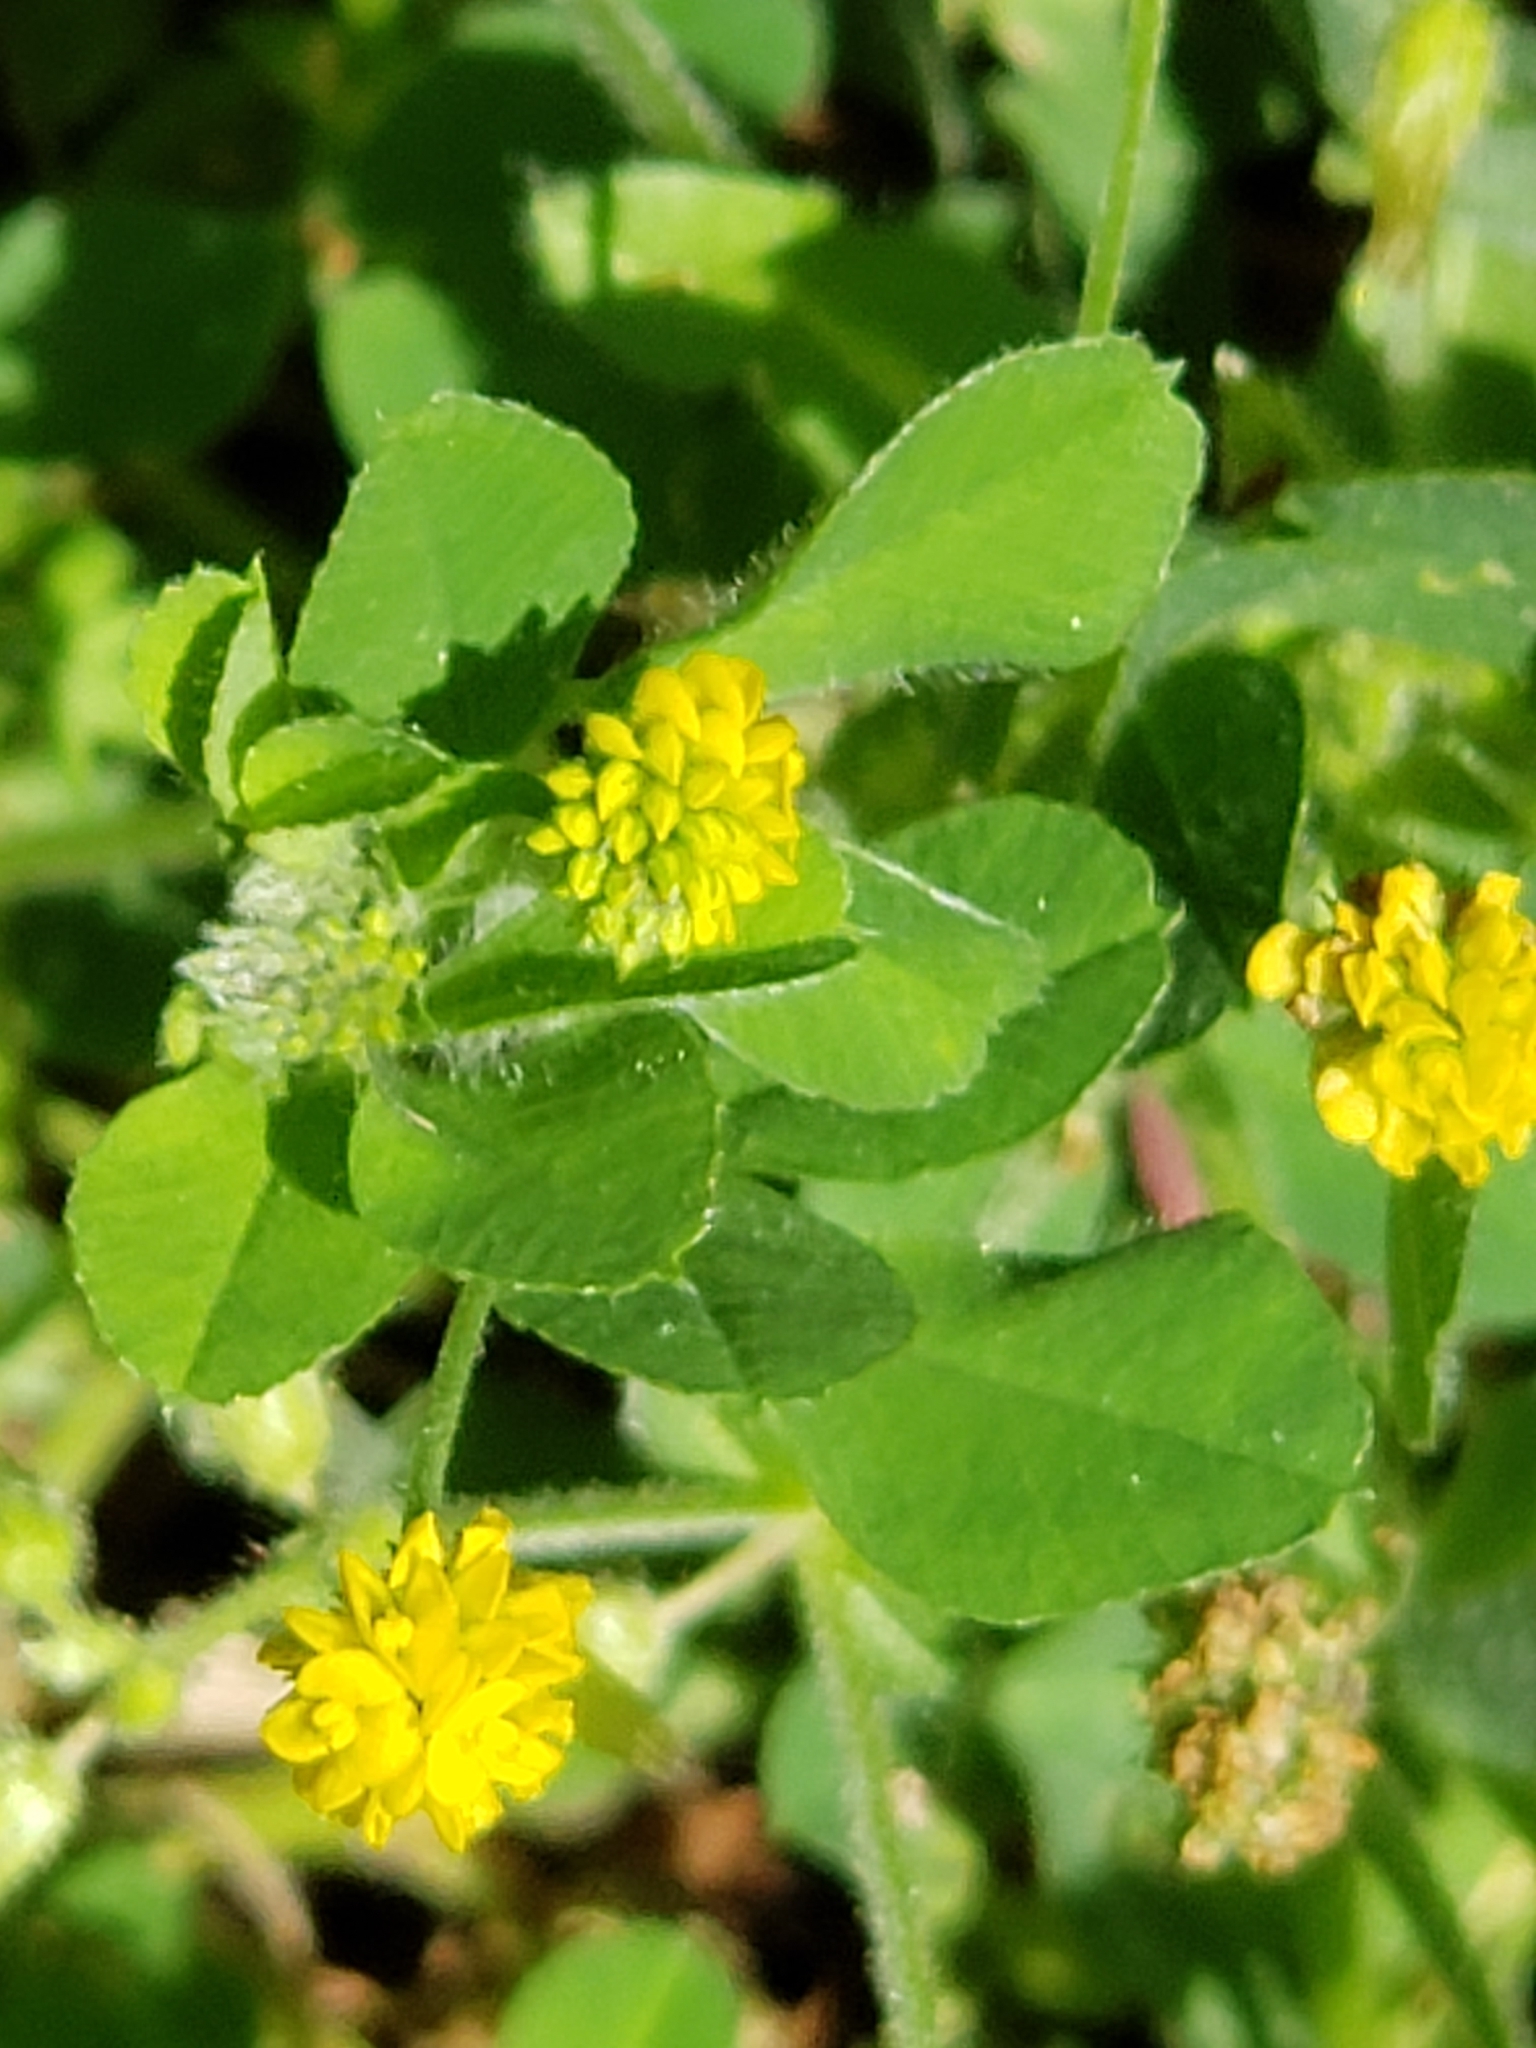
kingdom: Plantae
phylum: Tracheophyta
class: Magnoliopsida
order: Fabales
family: Fabaceae
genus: Medicago
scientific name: Medicago lupulina
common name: Black medick
